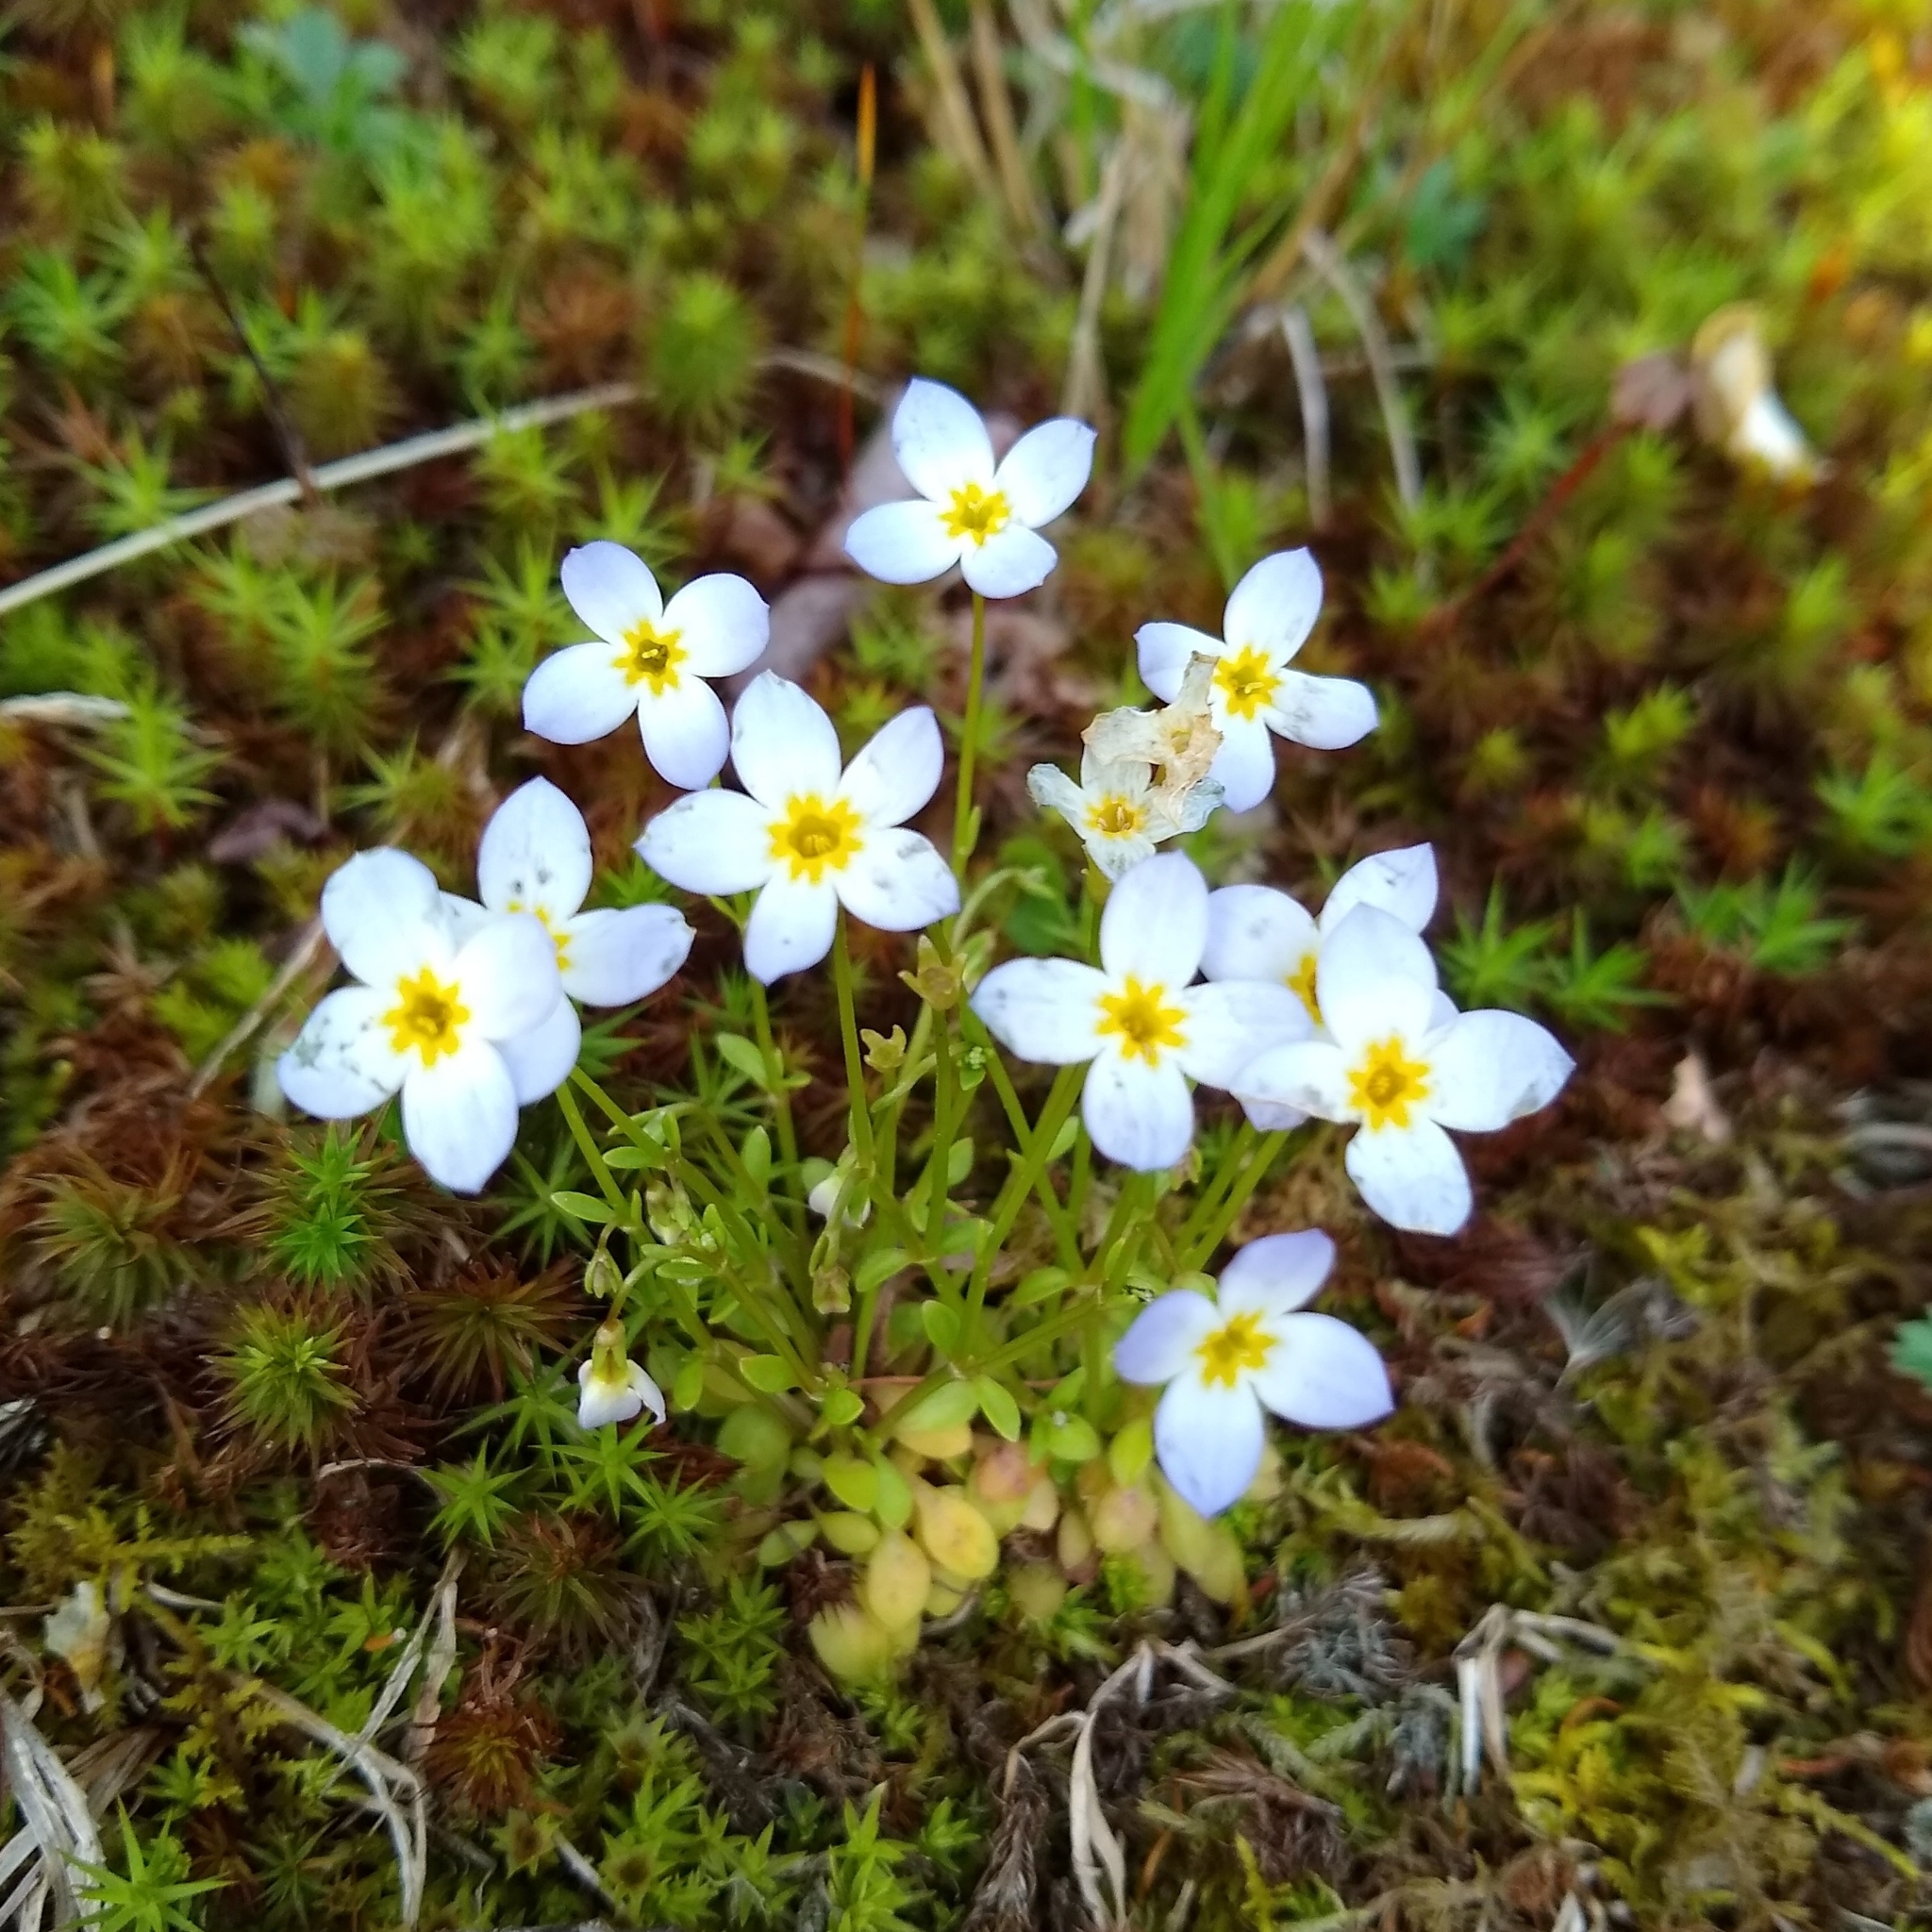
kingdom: Plantae
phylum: Tracheophyta
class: Magnoliopsida
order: Gentianales
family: Rubiaceae
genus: Houstonia
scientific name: Houstonia caerulea
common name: Bluets
